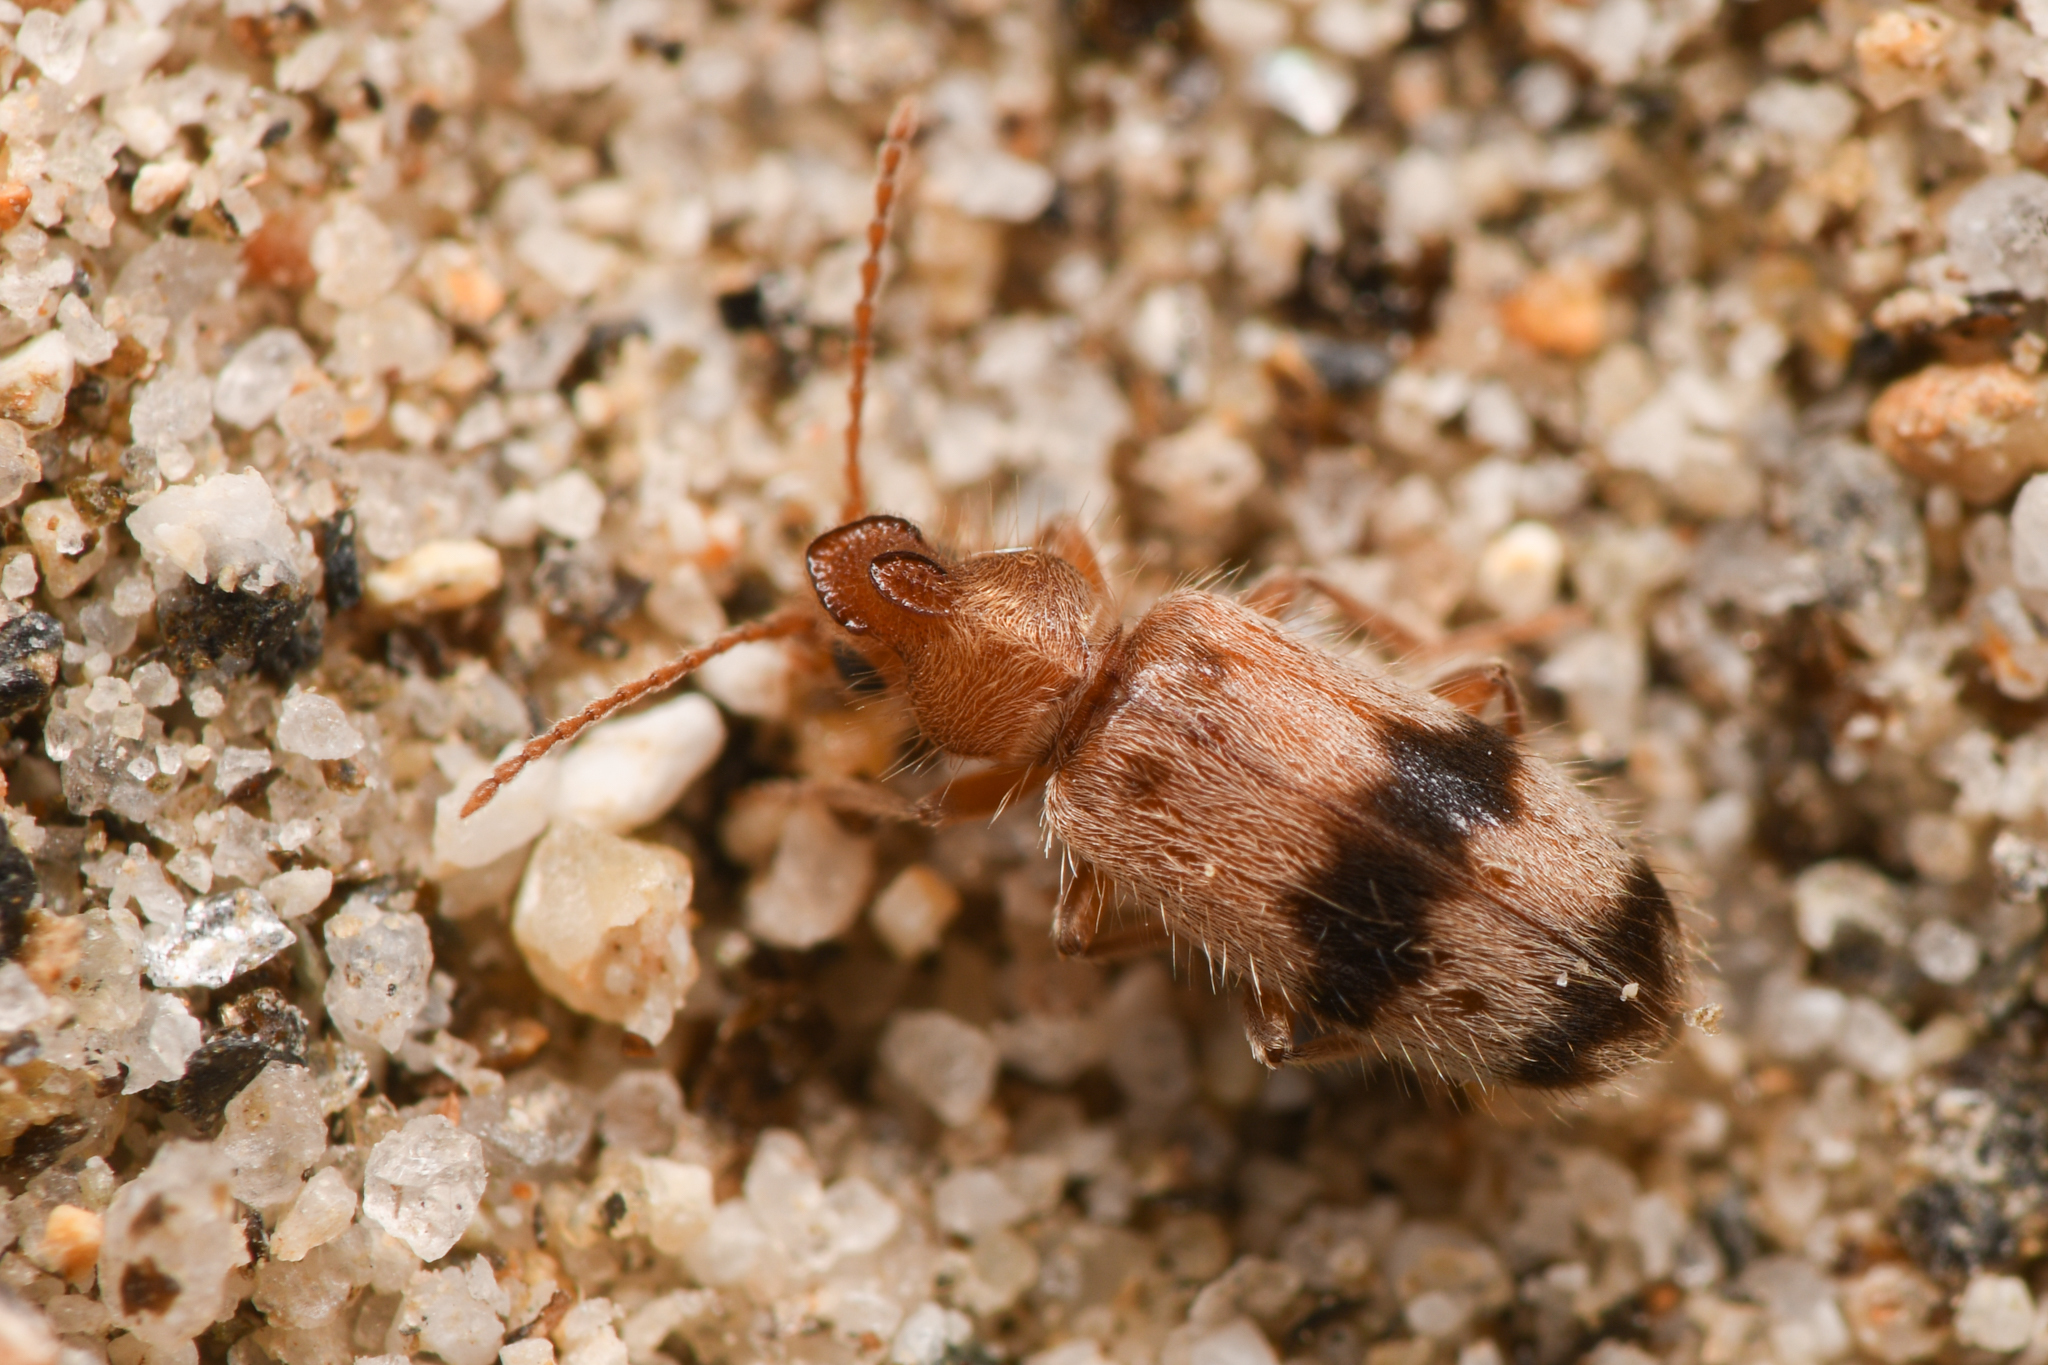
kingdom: Animalia
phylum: Arthropoda
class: Insecta
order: Coleoptera
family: Anthicidae
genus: Notoxus
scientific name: Notoxus calcaratus
